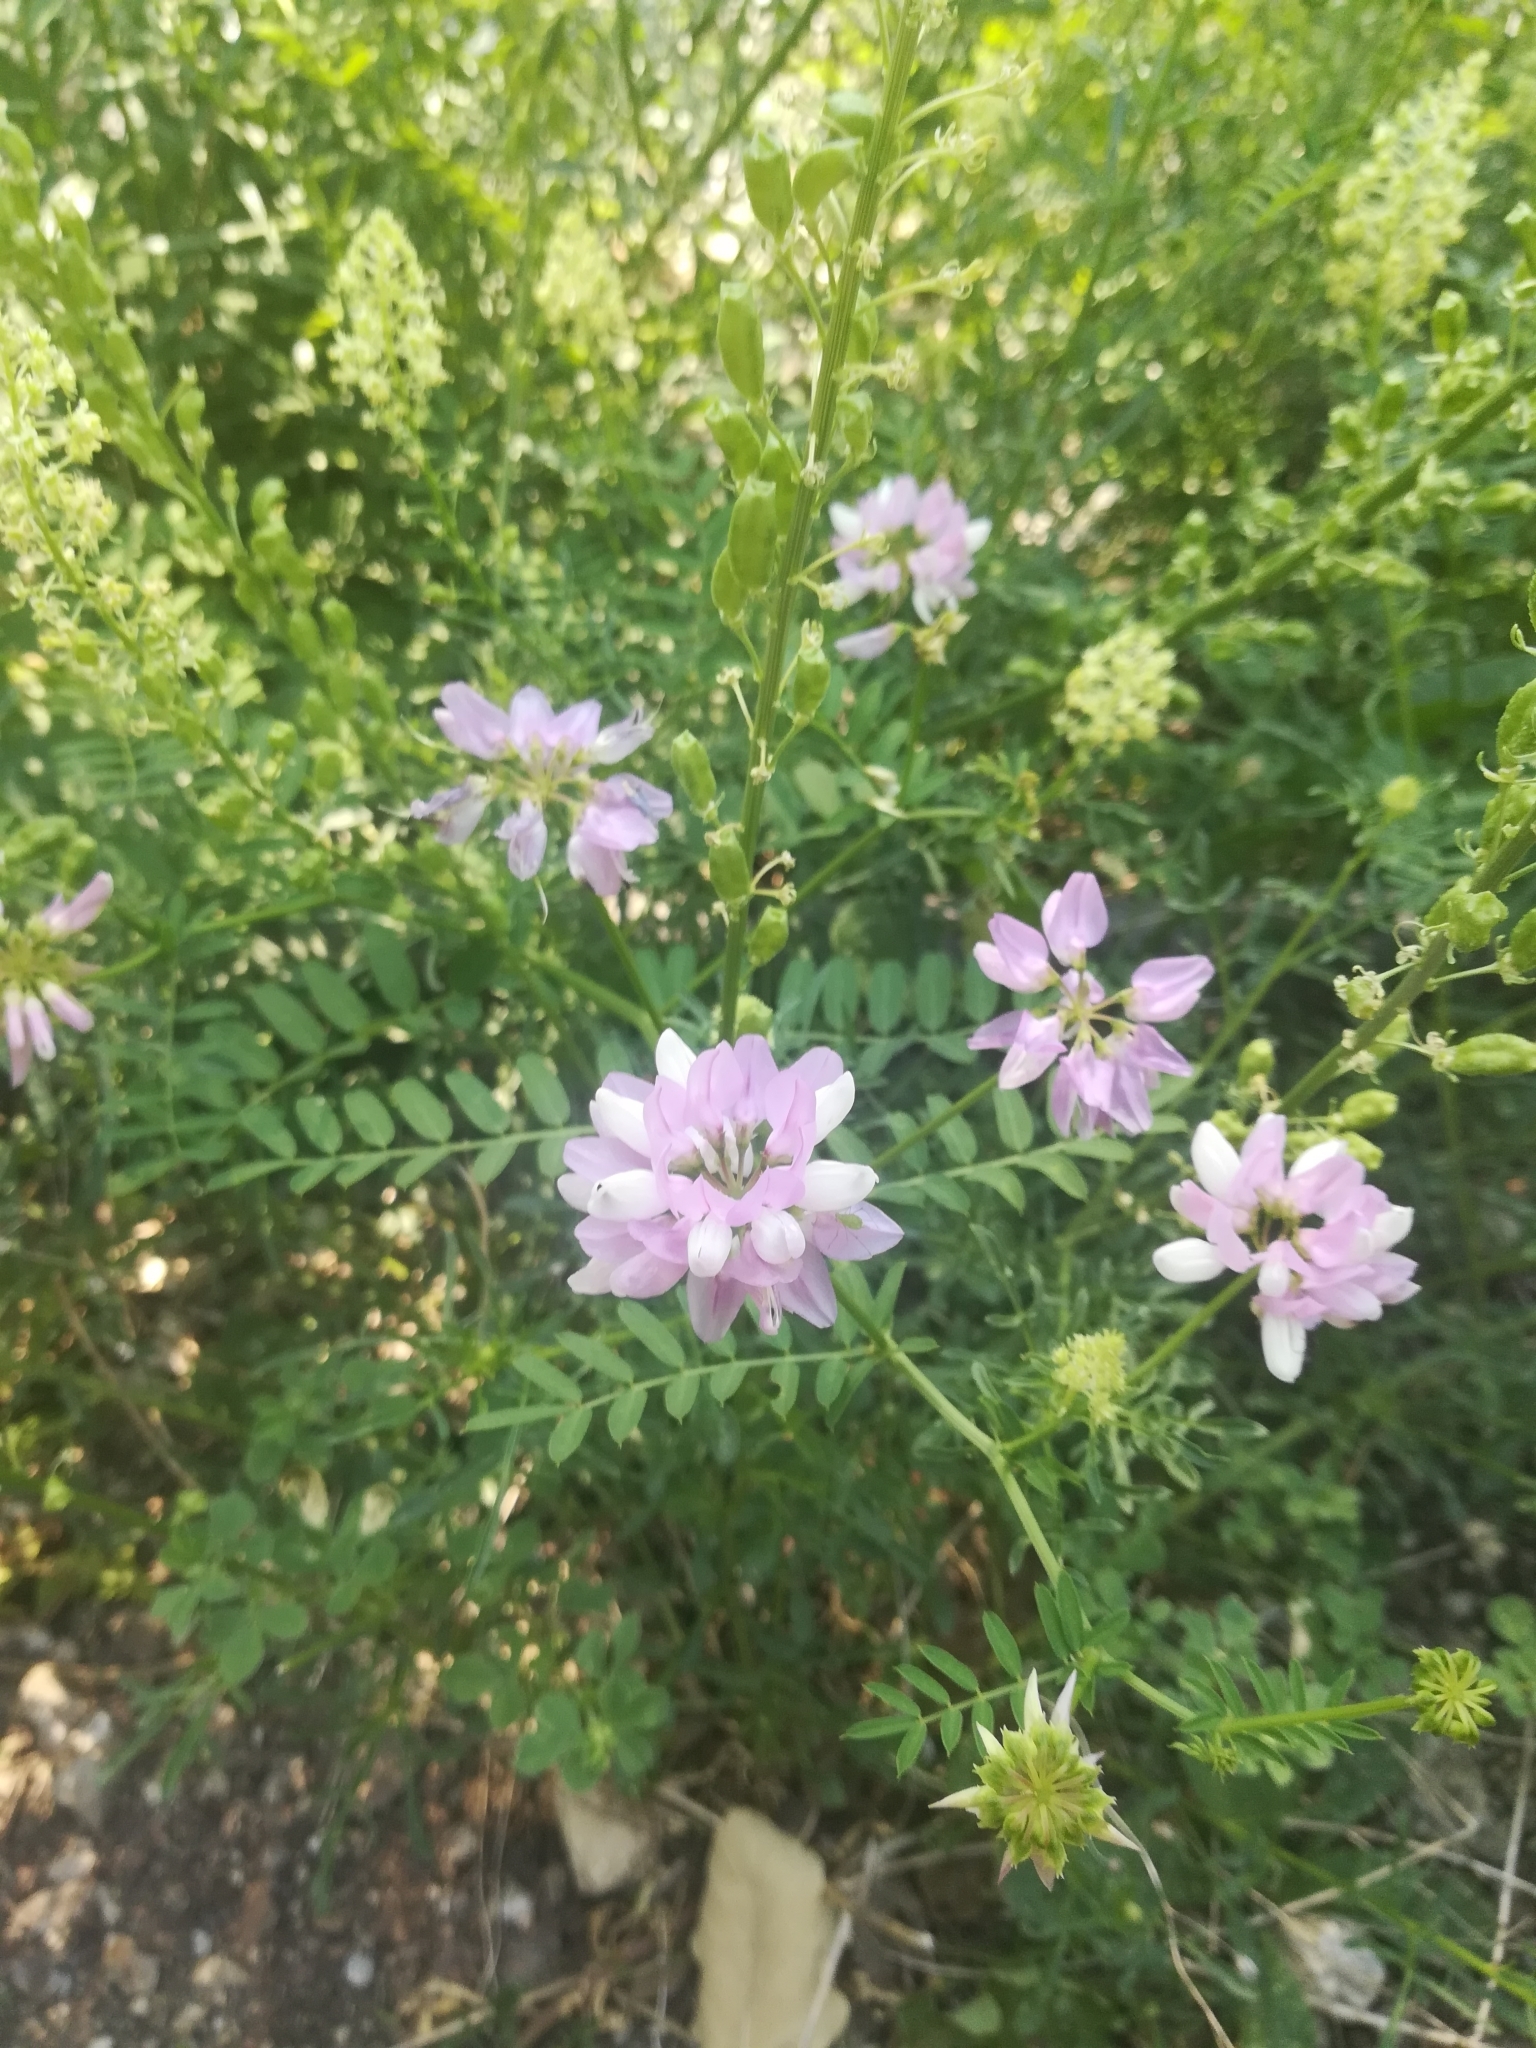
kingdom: Plantae
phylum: Tracheophyta
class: Magnoliopsida
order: Fabales
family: Fabaceae
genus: Coronilla
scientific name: Coronilla varia
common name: Crownvetch
